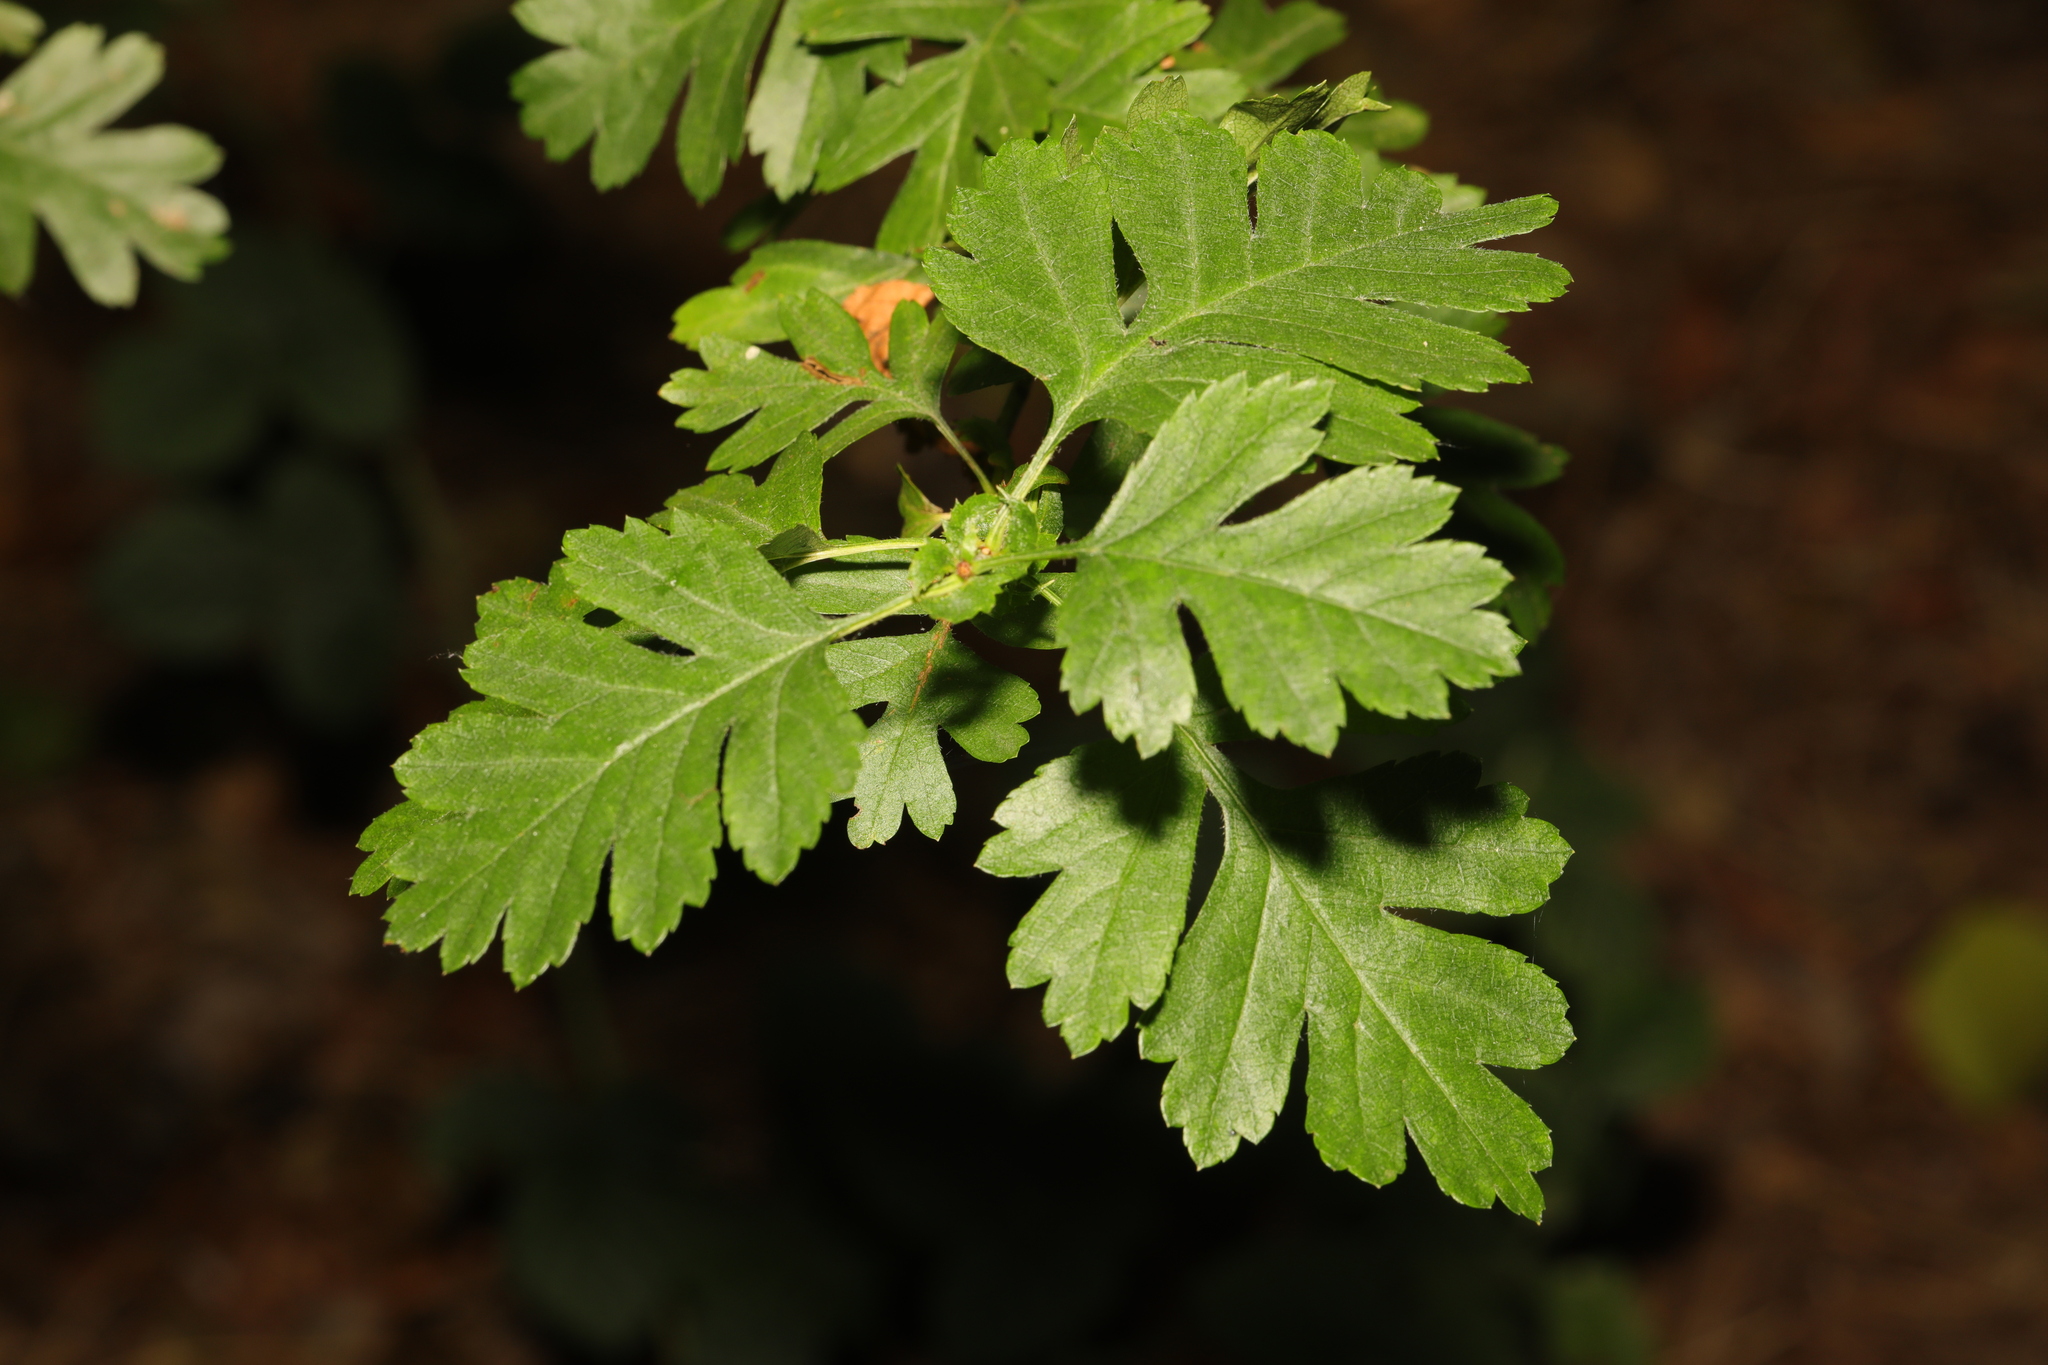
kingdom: Plantae
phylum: Tracheophyta
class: Magnoliopsida
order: Rosales
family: Rosaceae
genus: Crataegus
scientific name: Crataegus monogyna
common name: Hawthorn
